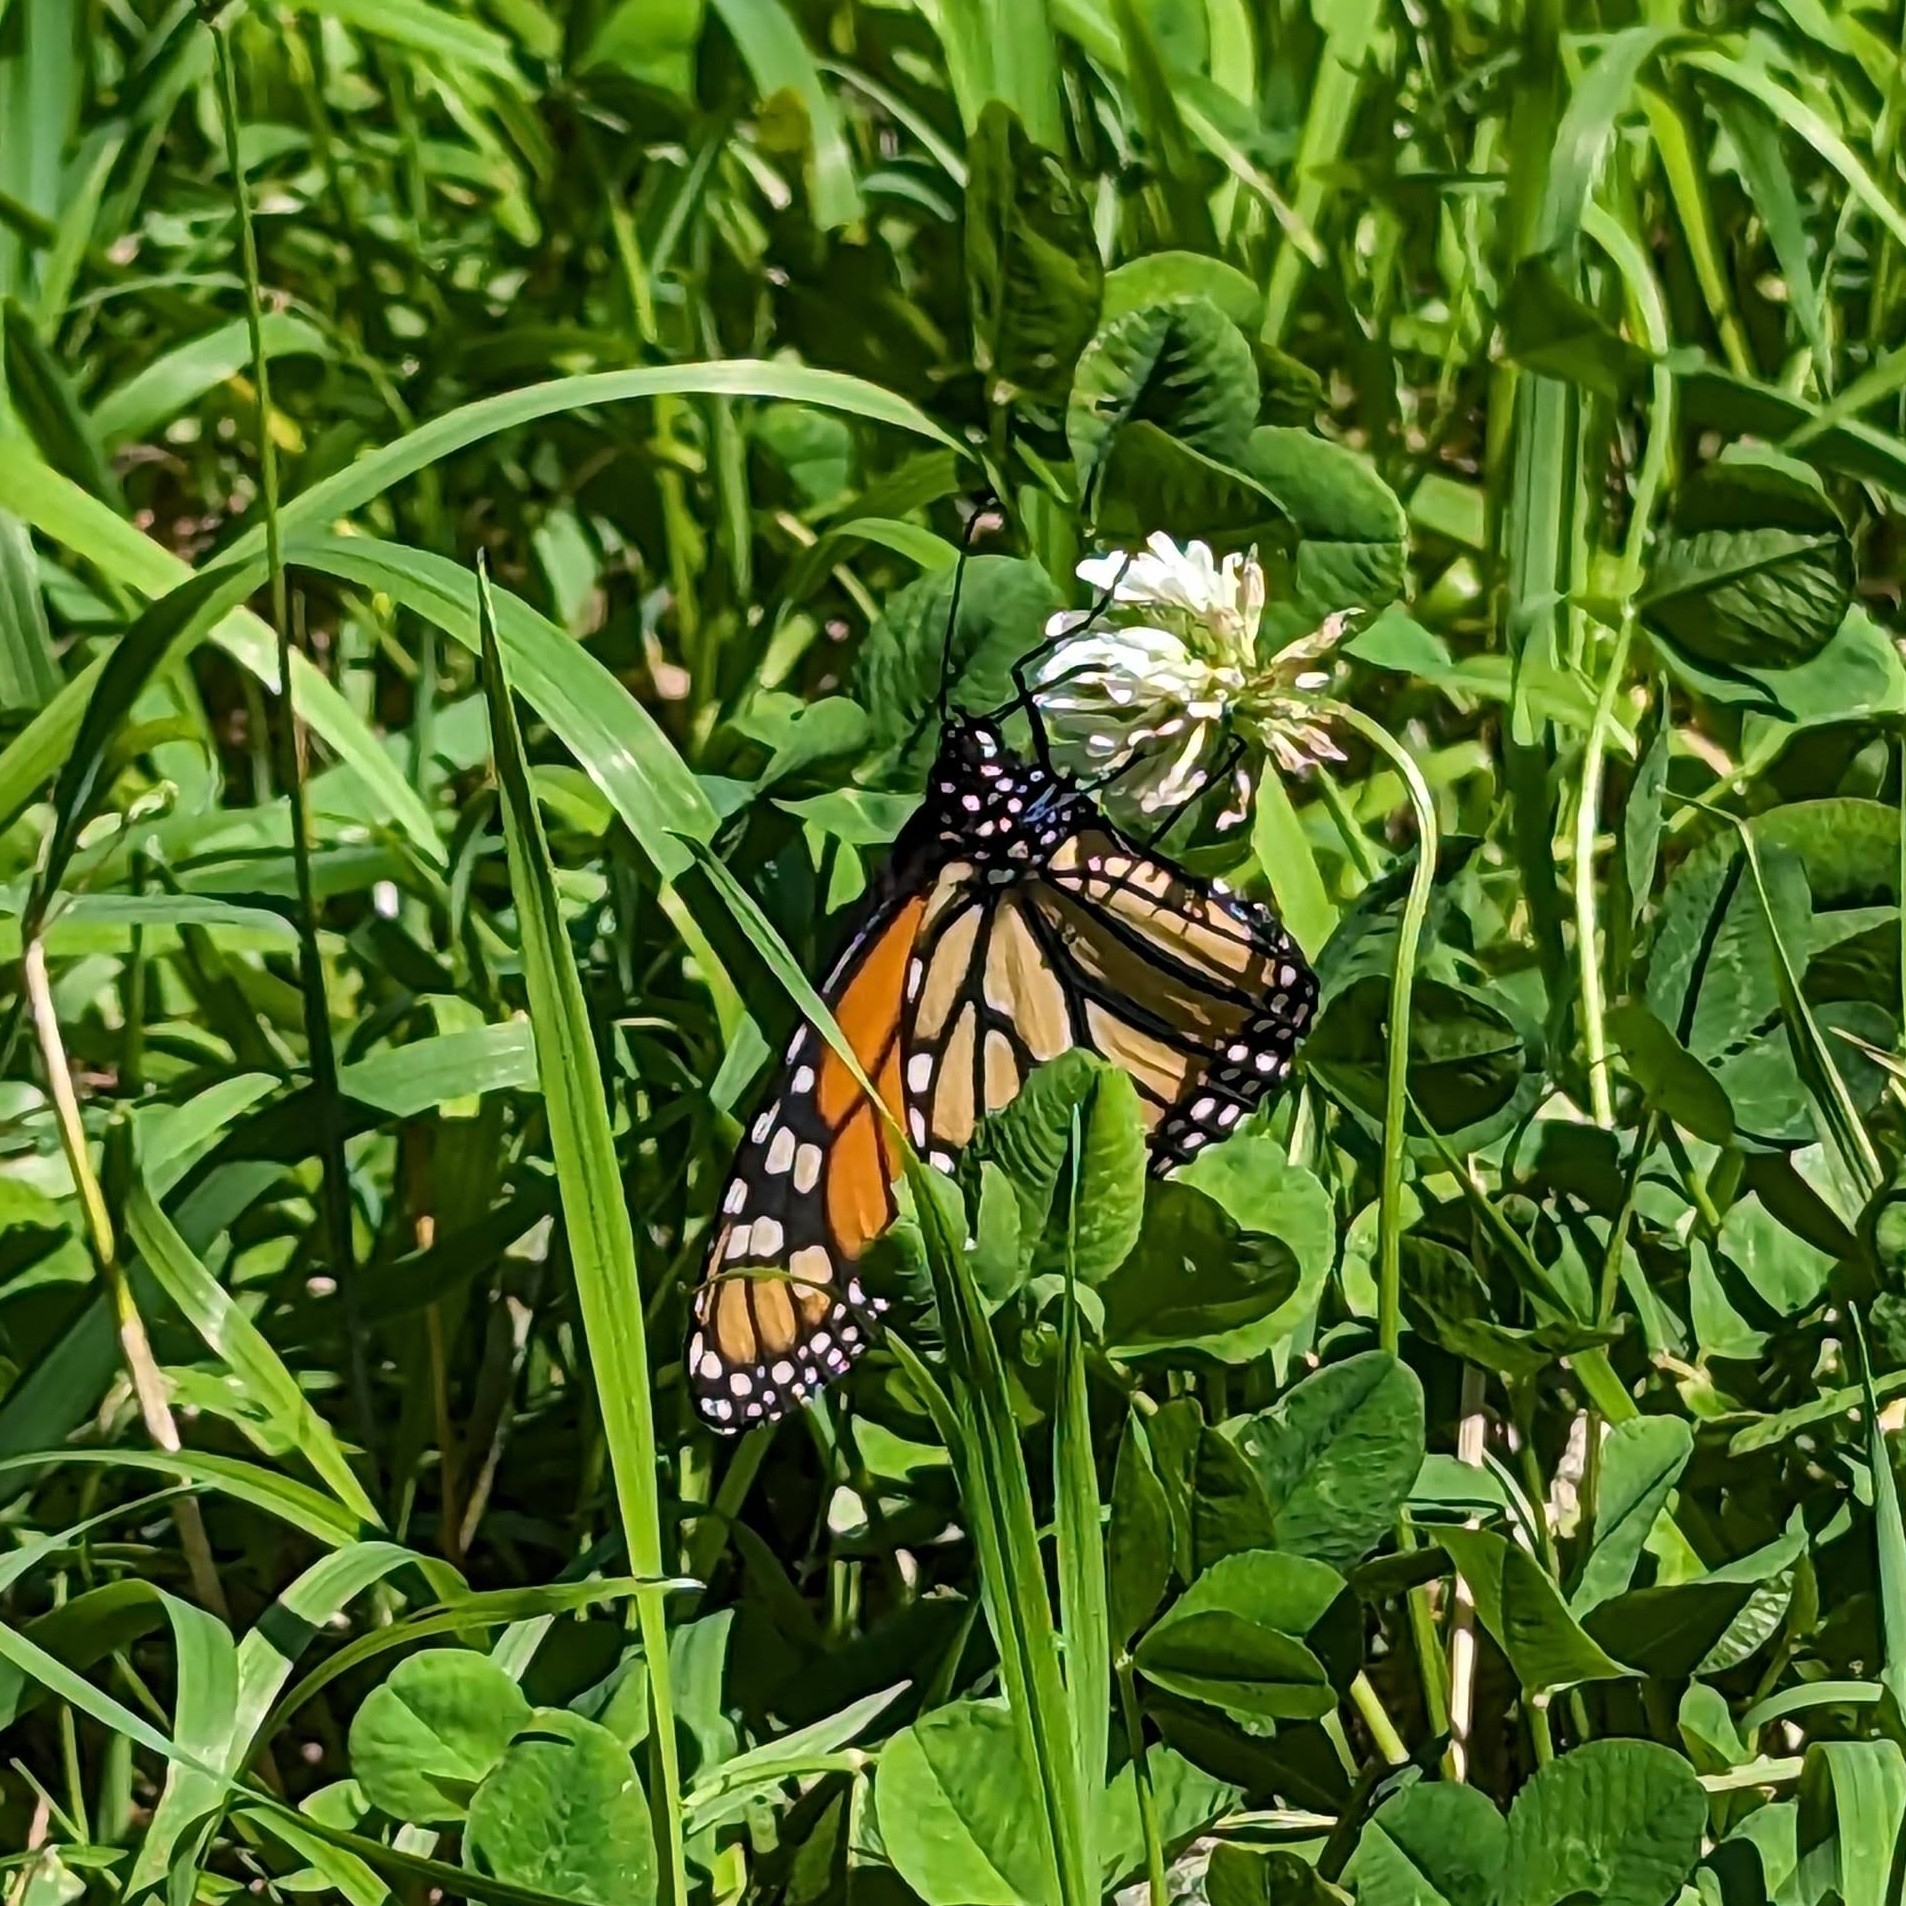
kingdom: Animalia
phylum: Arthropoda
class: Insecta
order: Lepidoptera
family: Nymphalidae
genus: Danaus
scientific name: Danaus plexippus
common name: Monarch
